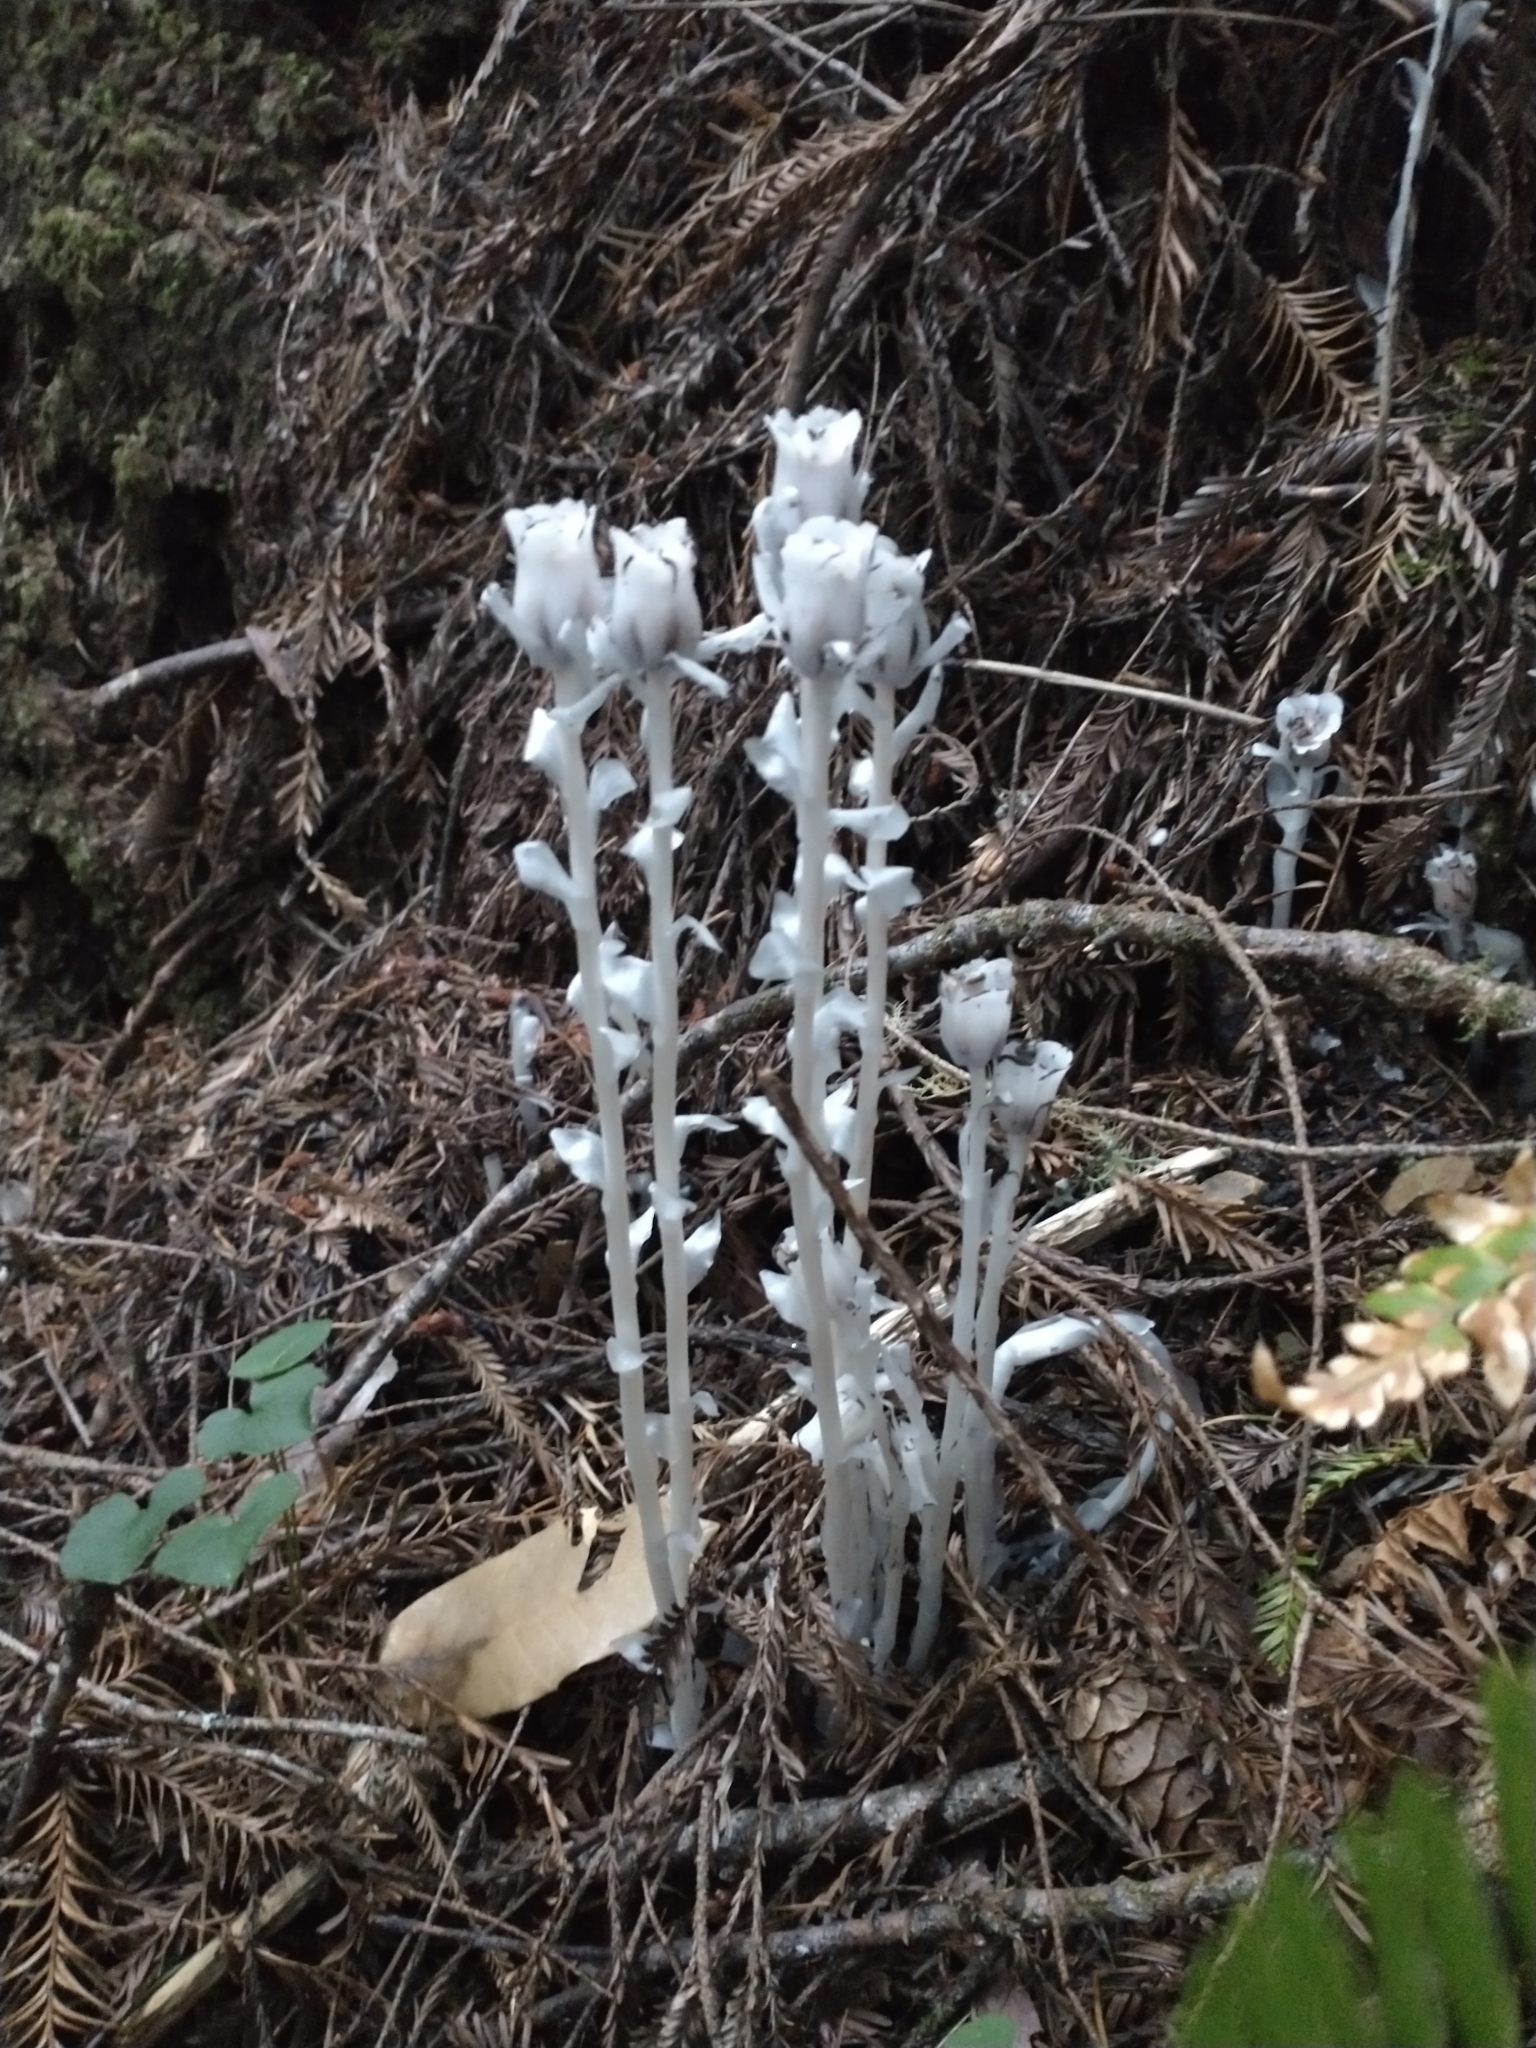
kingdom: Plantae
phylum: Tracheophyta
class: Magnoliopsida
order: Ericales
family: Ericaceae
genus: Monotropa
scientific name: Monotropa uniflora
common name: Convulsion root
